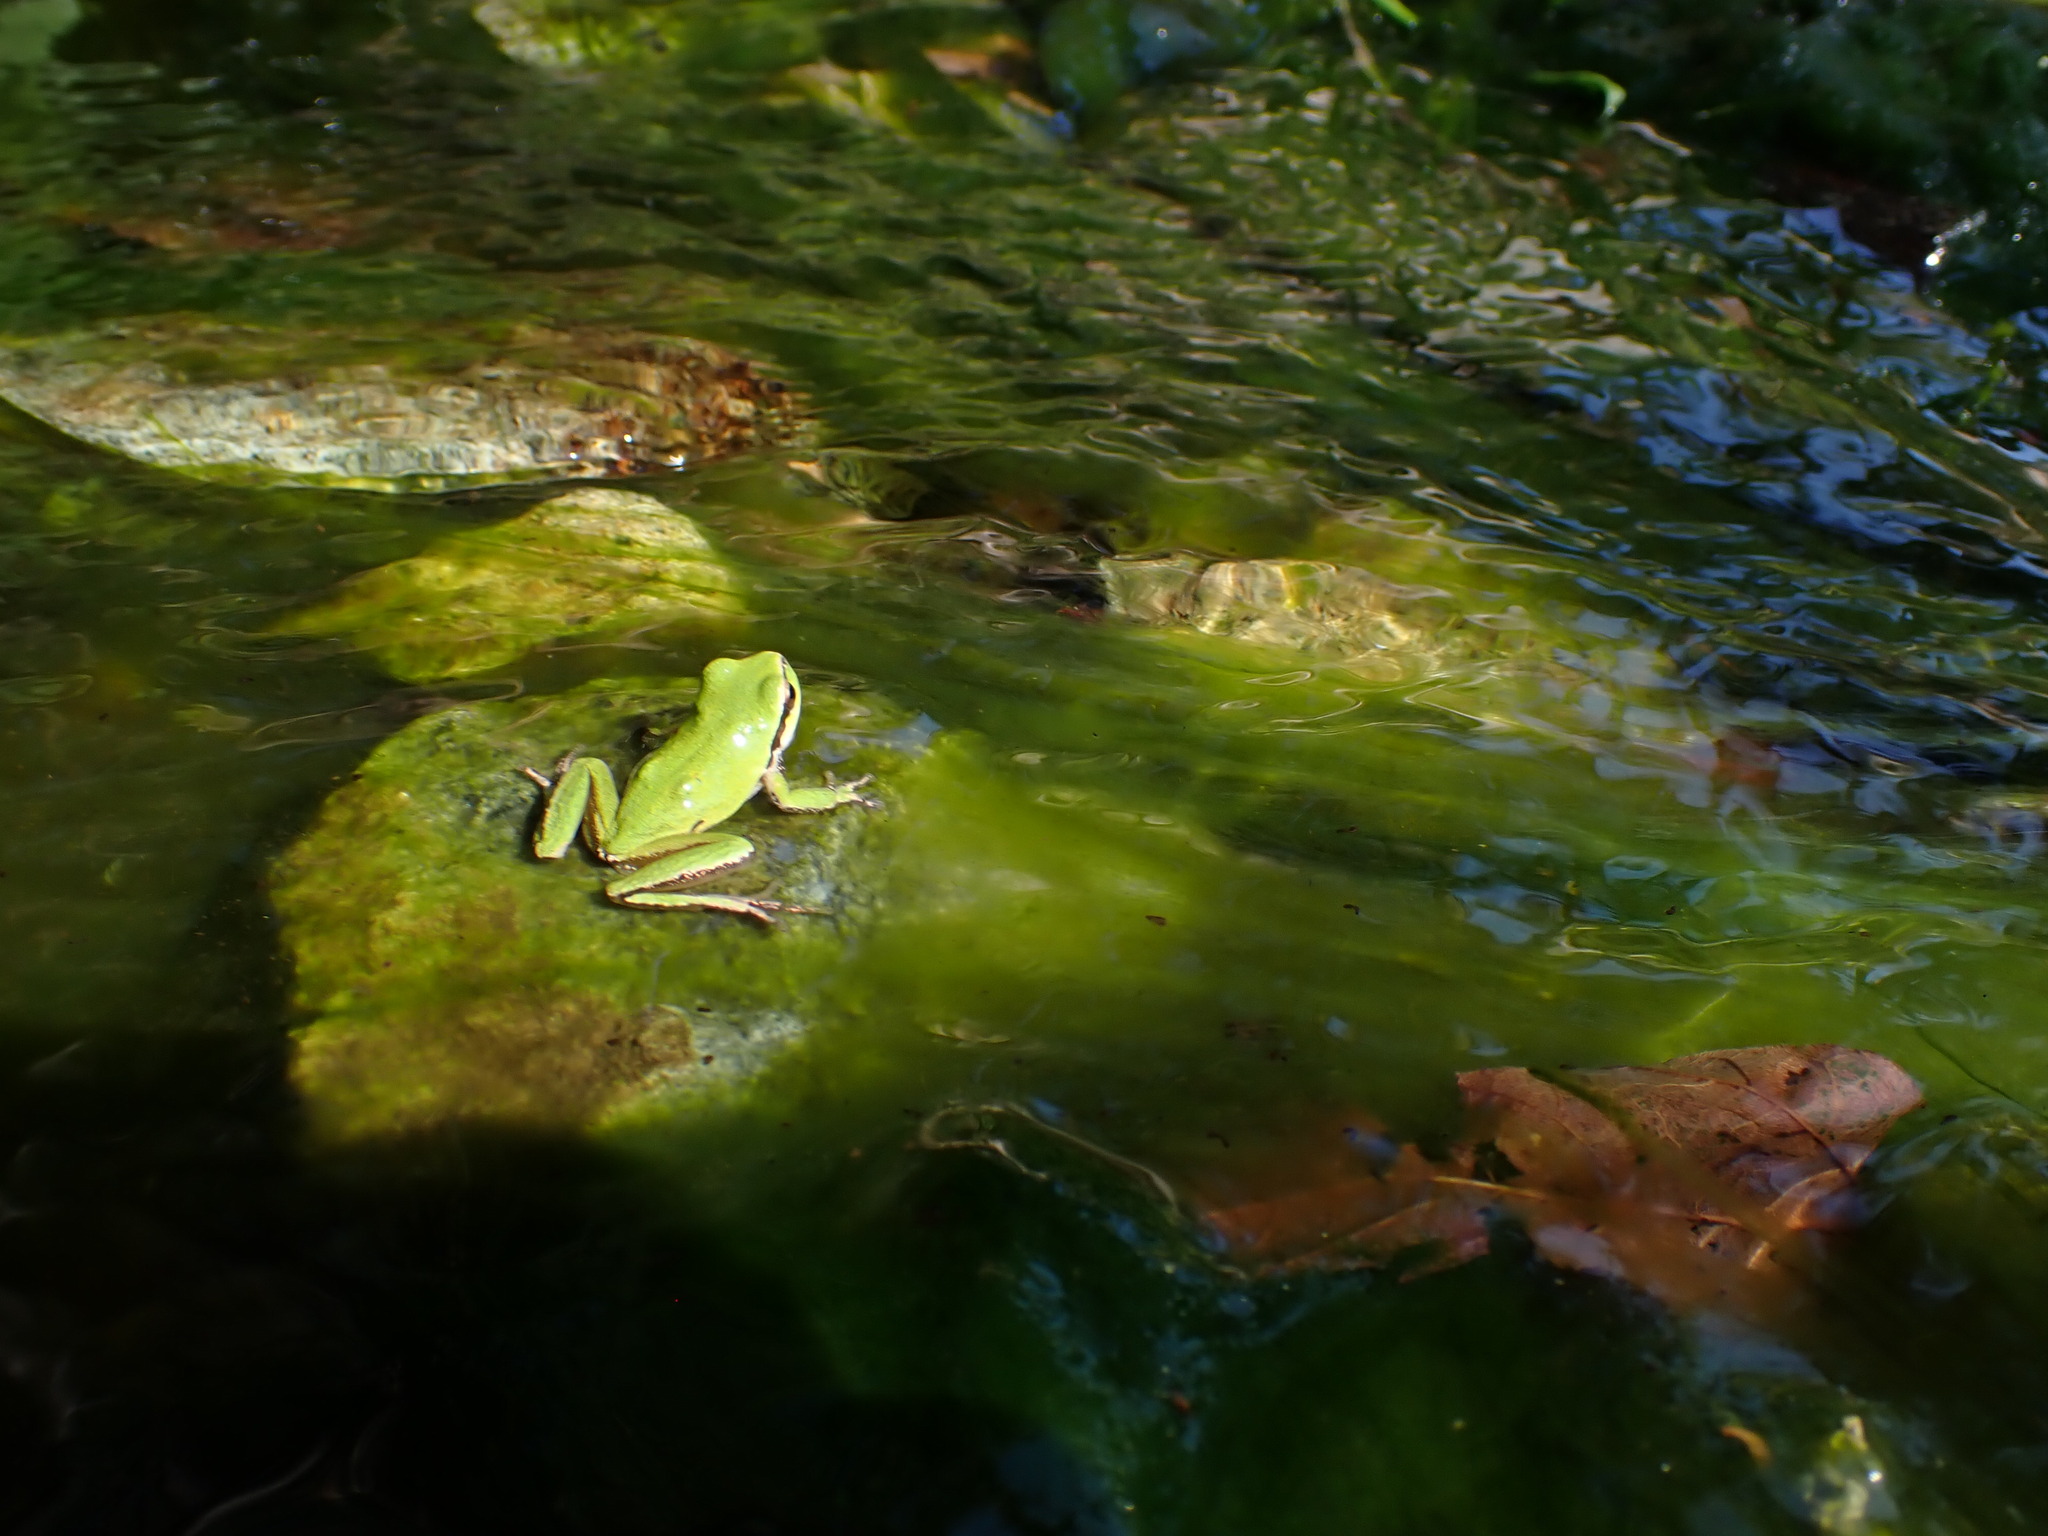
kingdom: Animalia
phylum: Chordata
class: Amphibia
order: Anura
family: Hylidae
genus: Pseudacris
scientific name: Pseudacris regilla
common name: Pacific chorus frog
